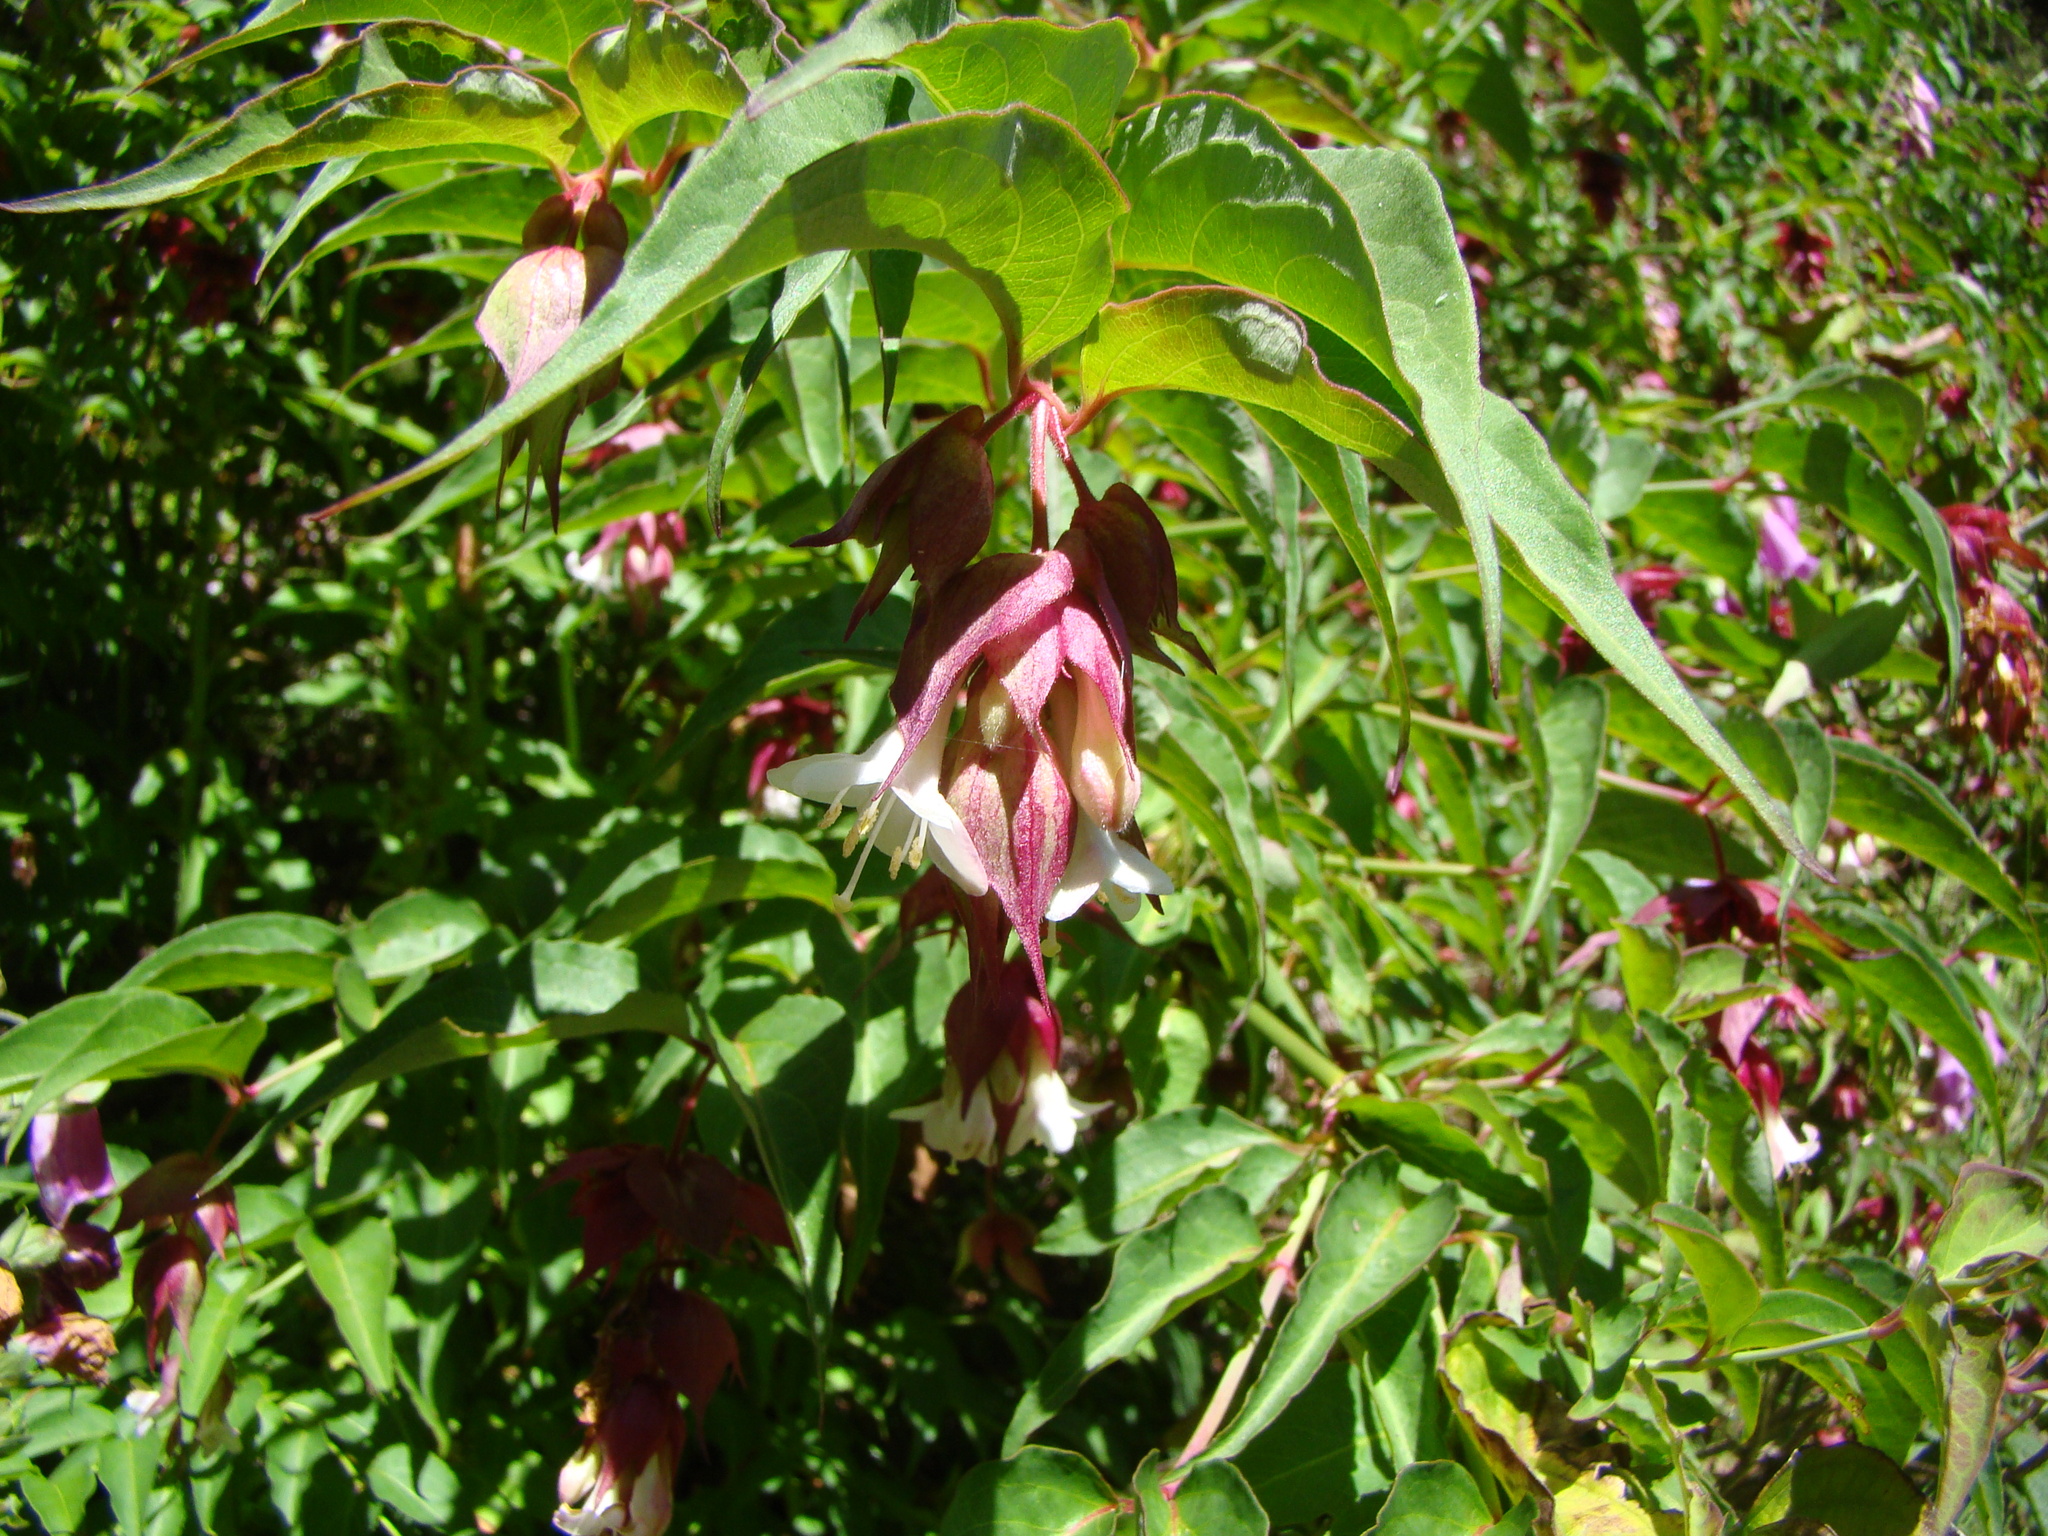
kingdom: Plantae
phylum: Tracheophyta
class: Magnoliopsida
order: Dipsacales
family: Caprifoliaceae
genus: Leycesteria
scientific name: Leycesteria formosa
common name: Himalayan honeysuckle
